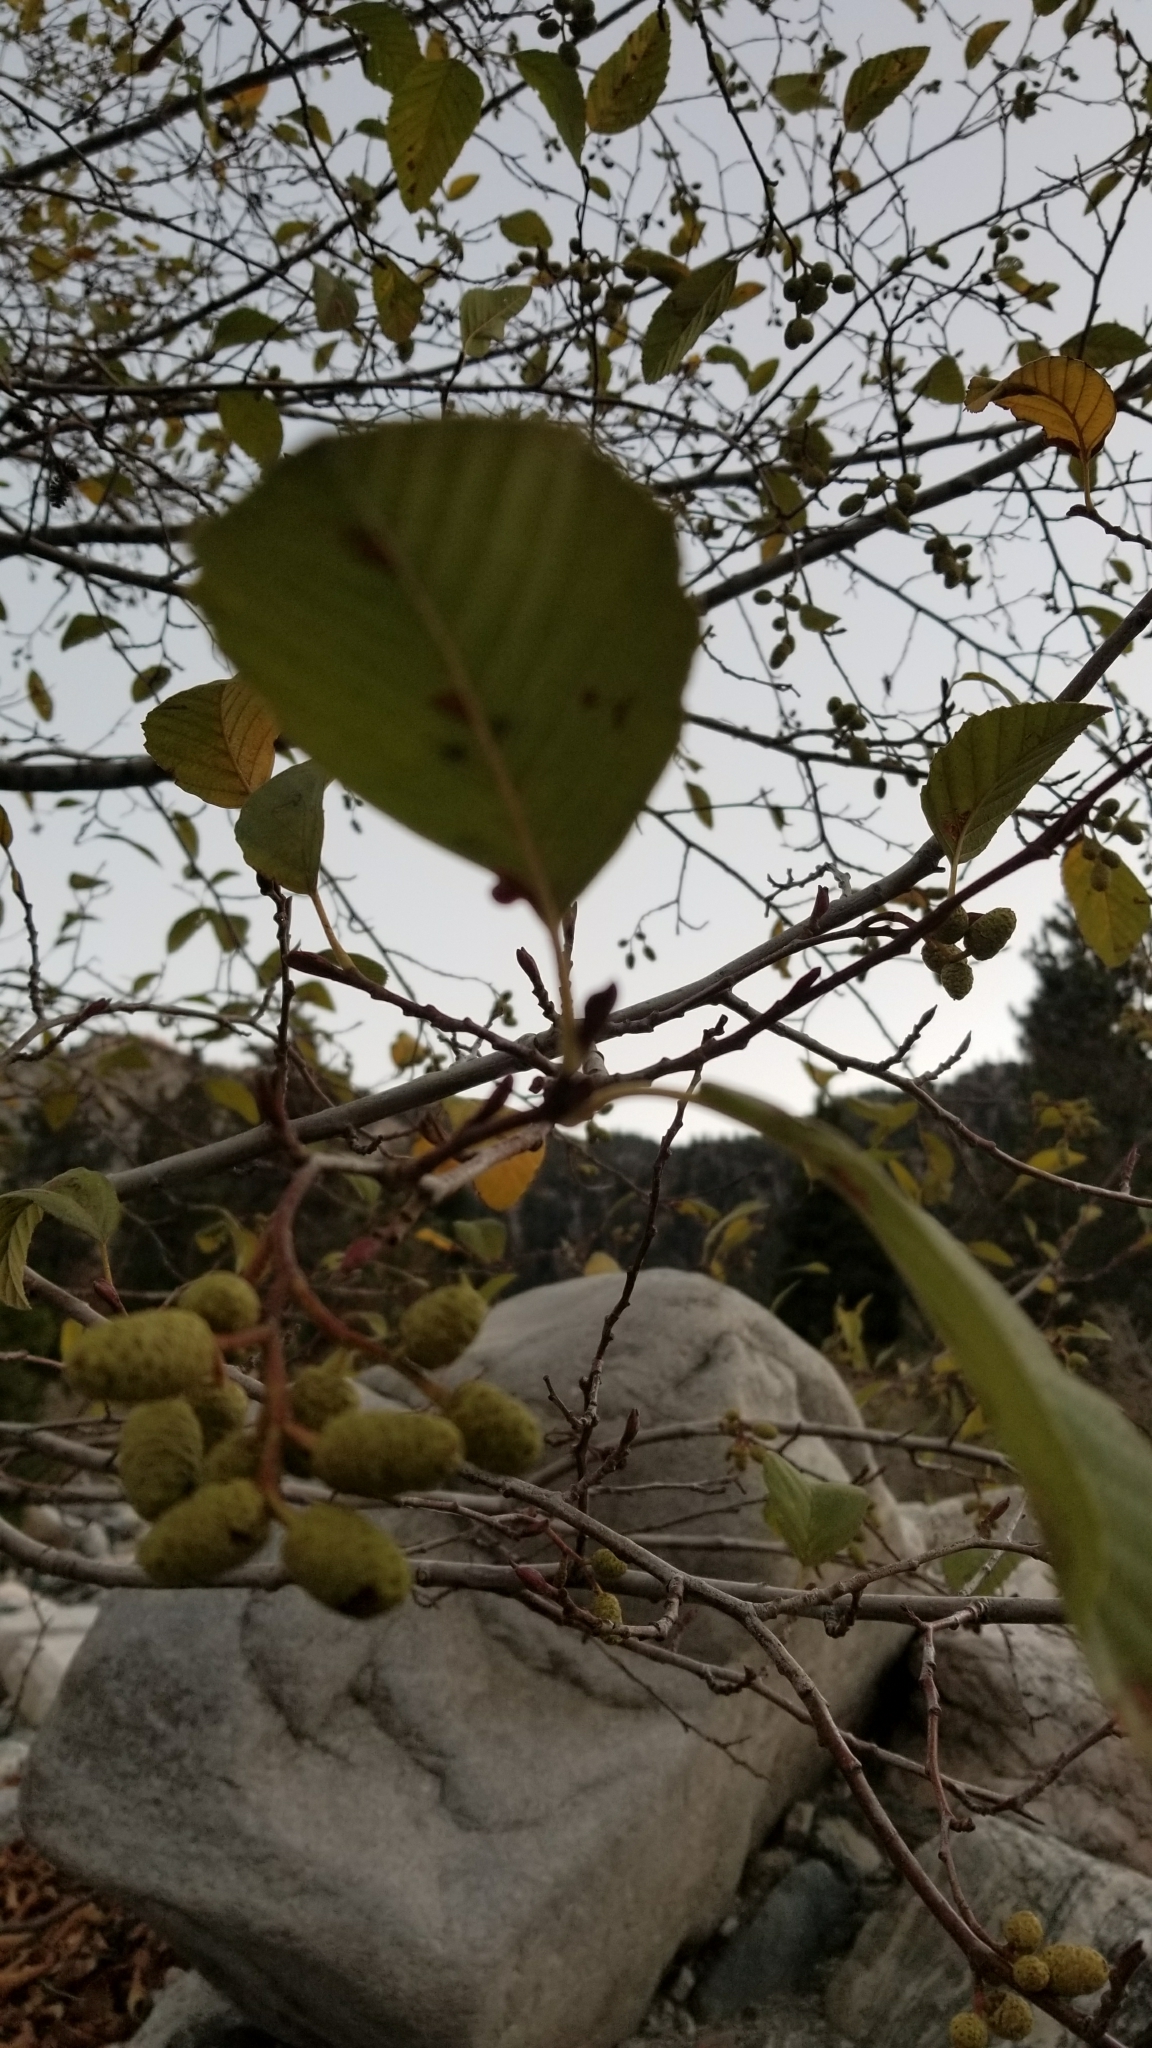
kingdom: Plantae
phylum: Tracheophyta
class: Magnoliopsida
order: Fagales
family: Betulaceae
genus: Alnus
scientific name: Alnus rhombifolia
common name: California alder
